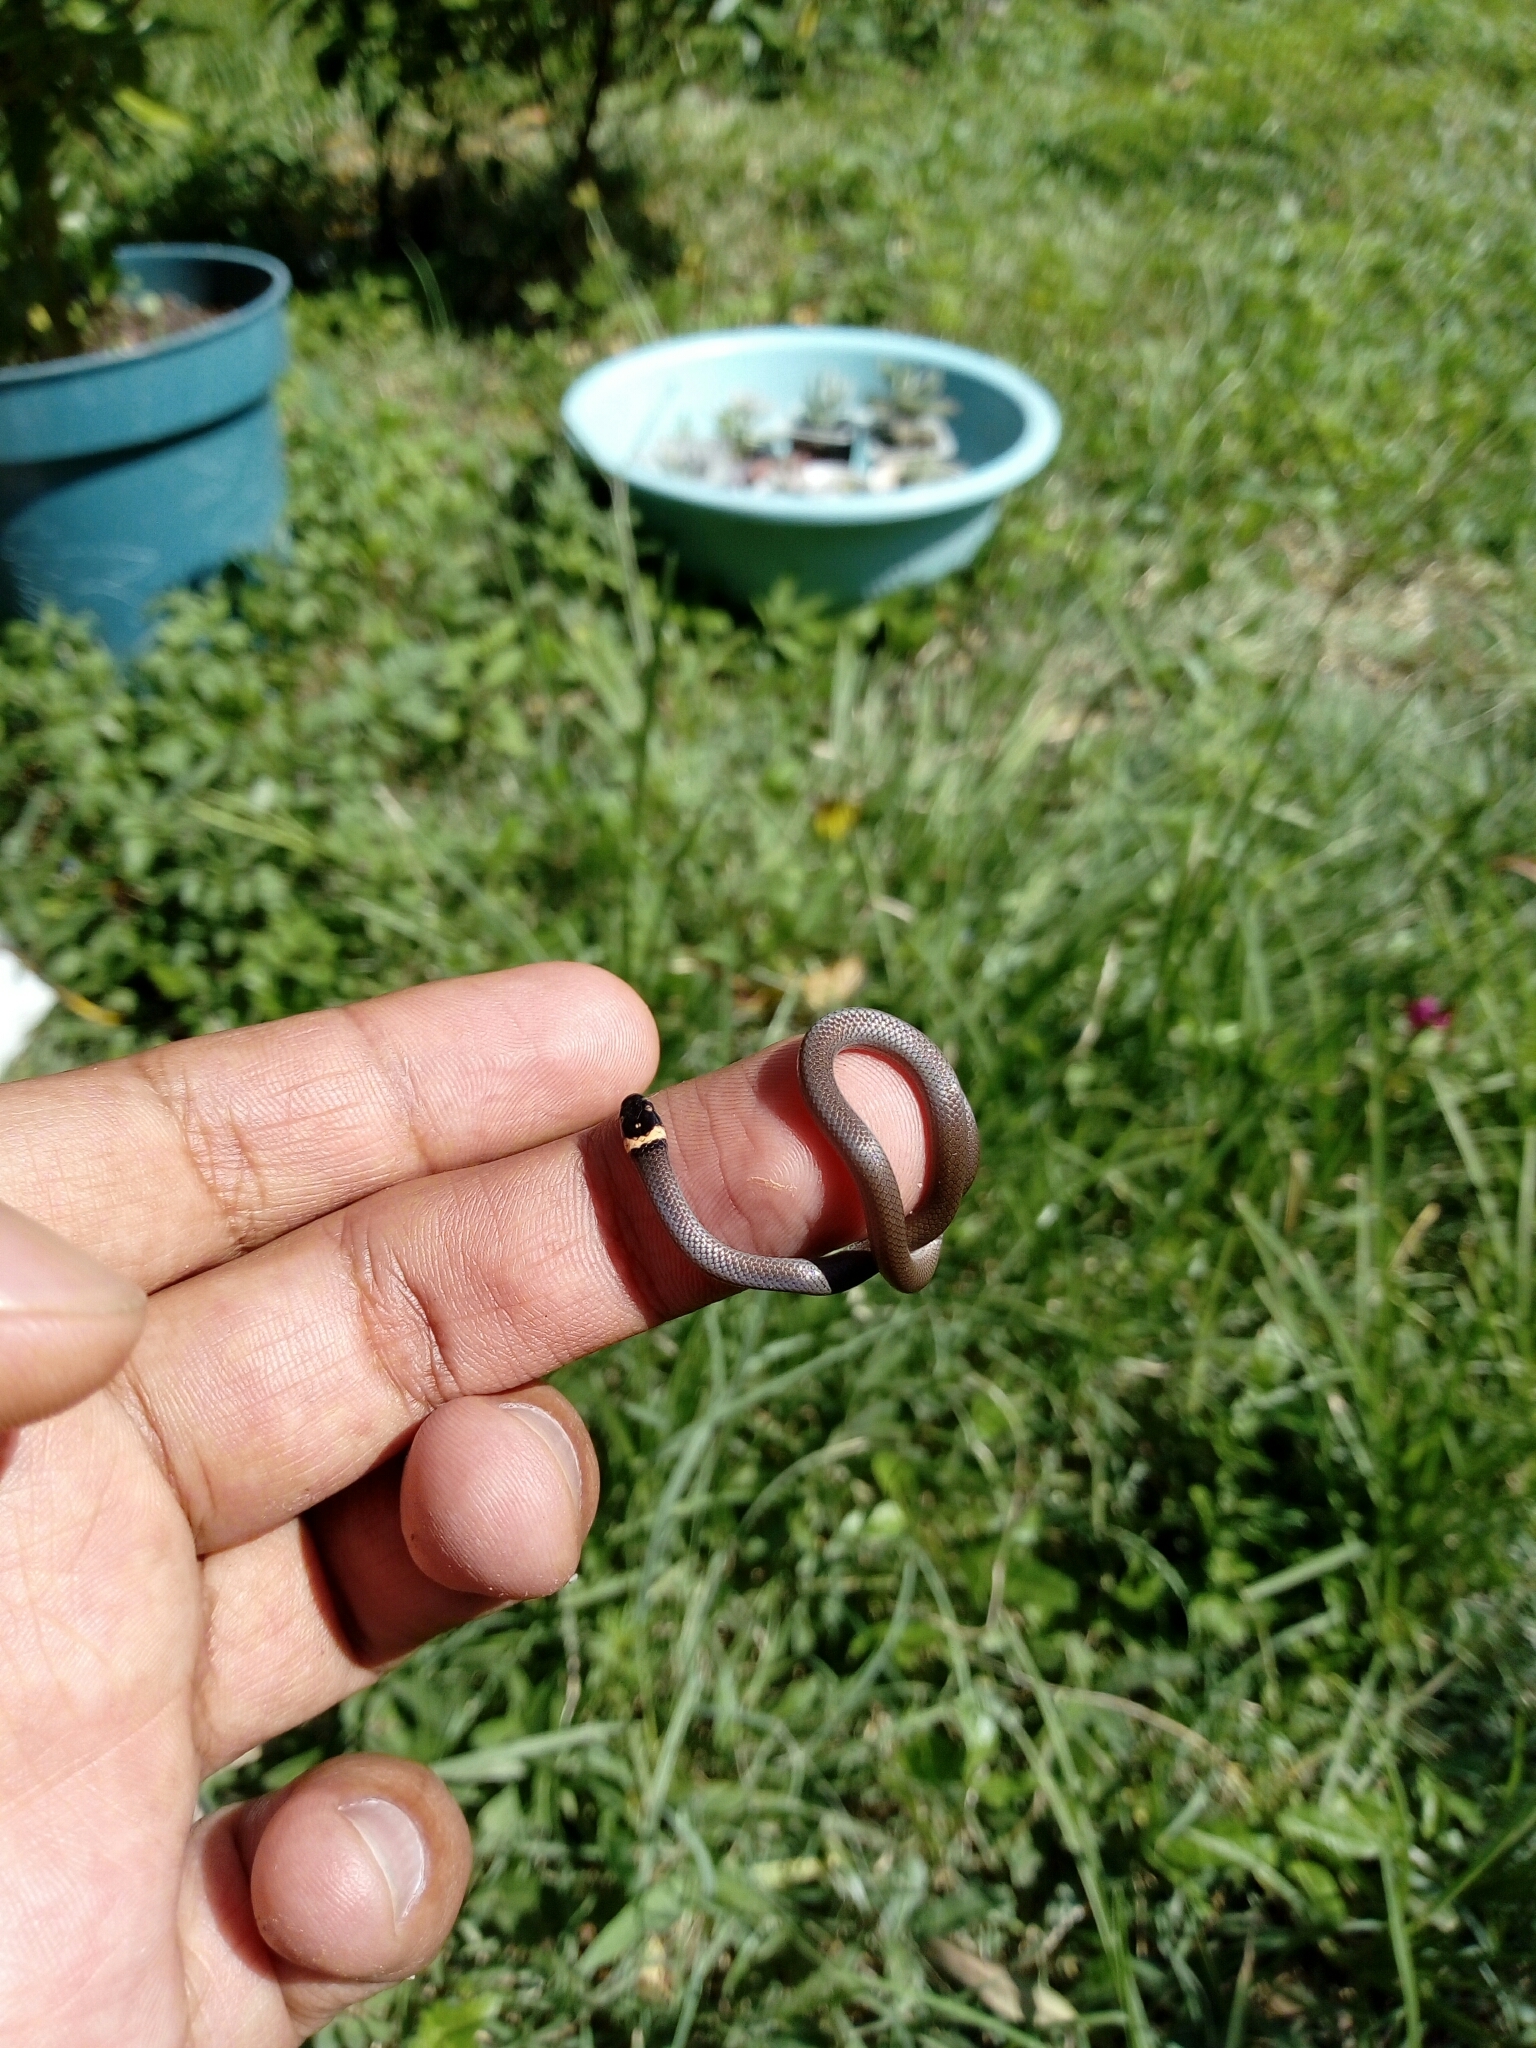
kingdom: Animalia
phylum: Chordata
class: Squamata
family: Colubridae
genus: Tantilla
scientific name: Tantilla bocourti
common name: Bocourt's black-headed snake
